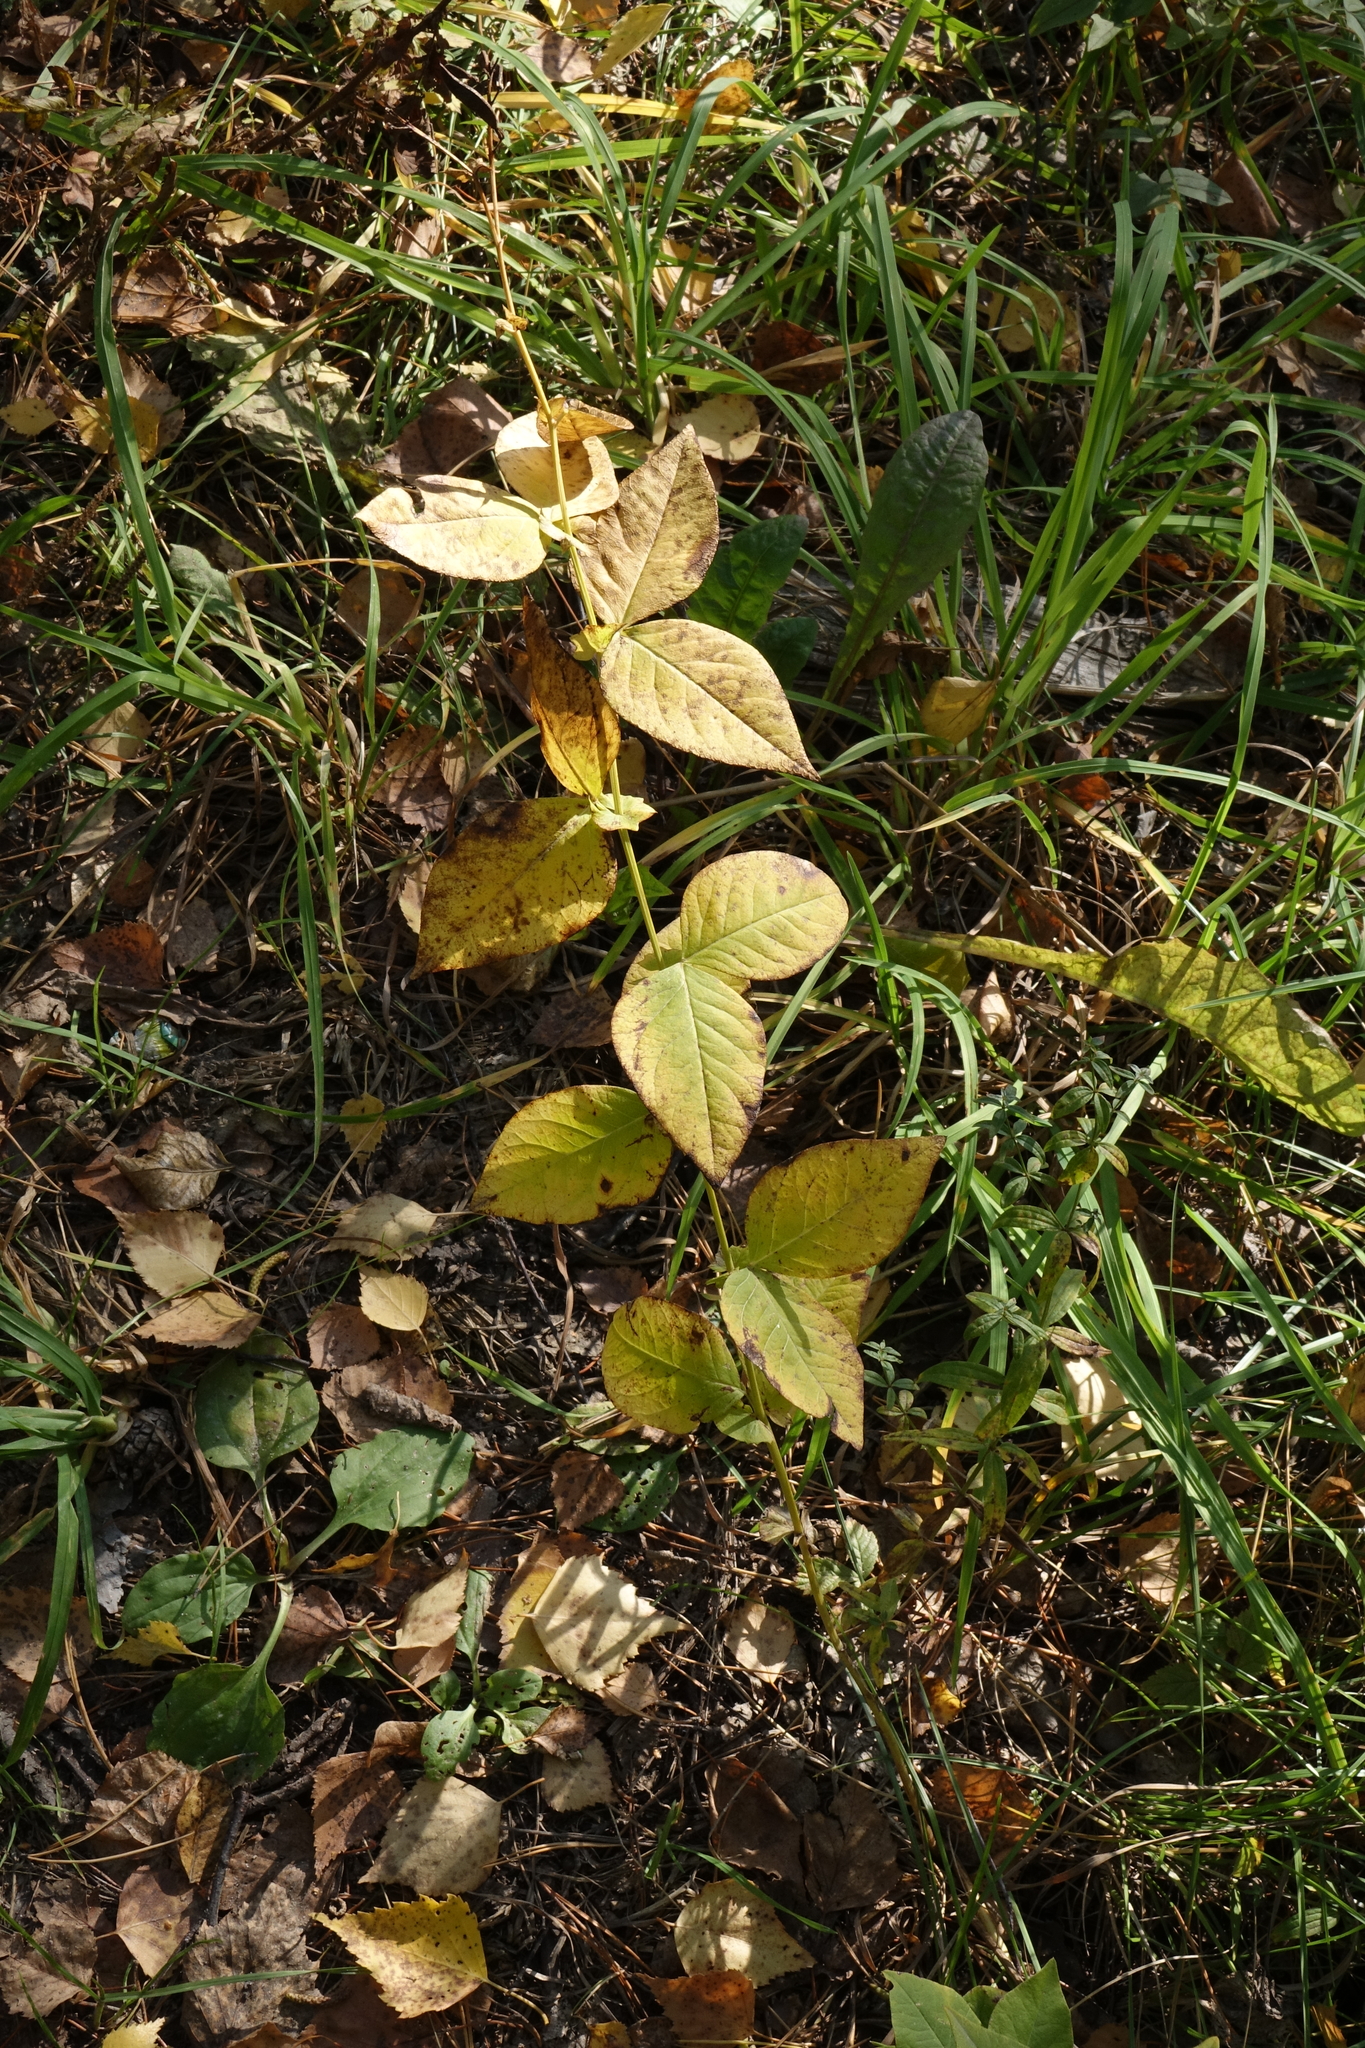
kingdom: Plantae
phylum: Tracheophyta
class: Magnoliopsida
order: Fabales
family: Fabaceae
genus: Vicia
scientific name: Vicia unijuga
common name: Two-leaf vetch
